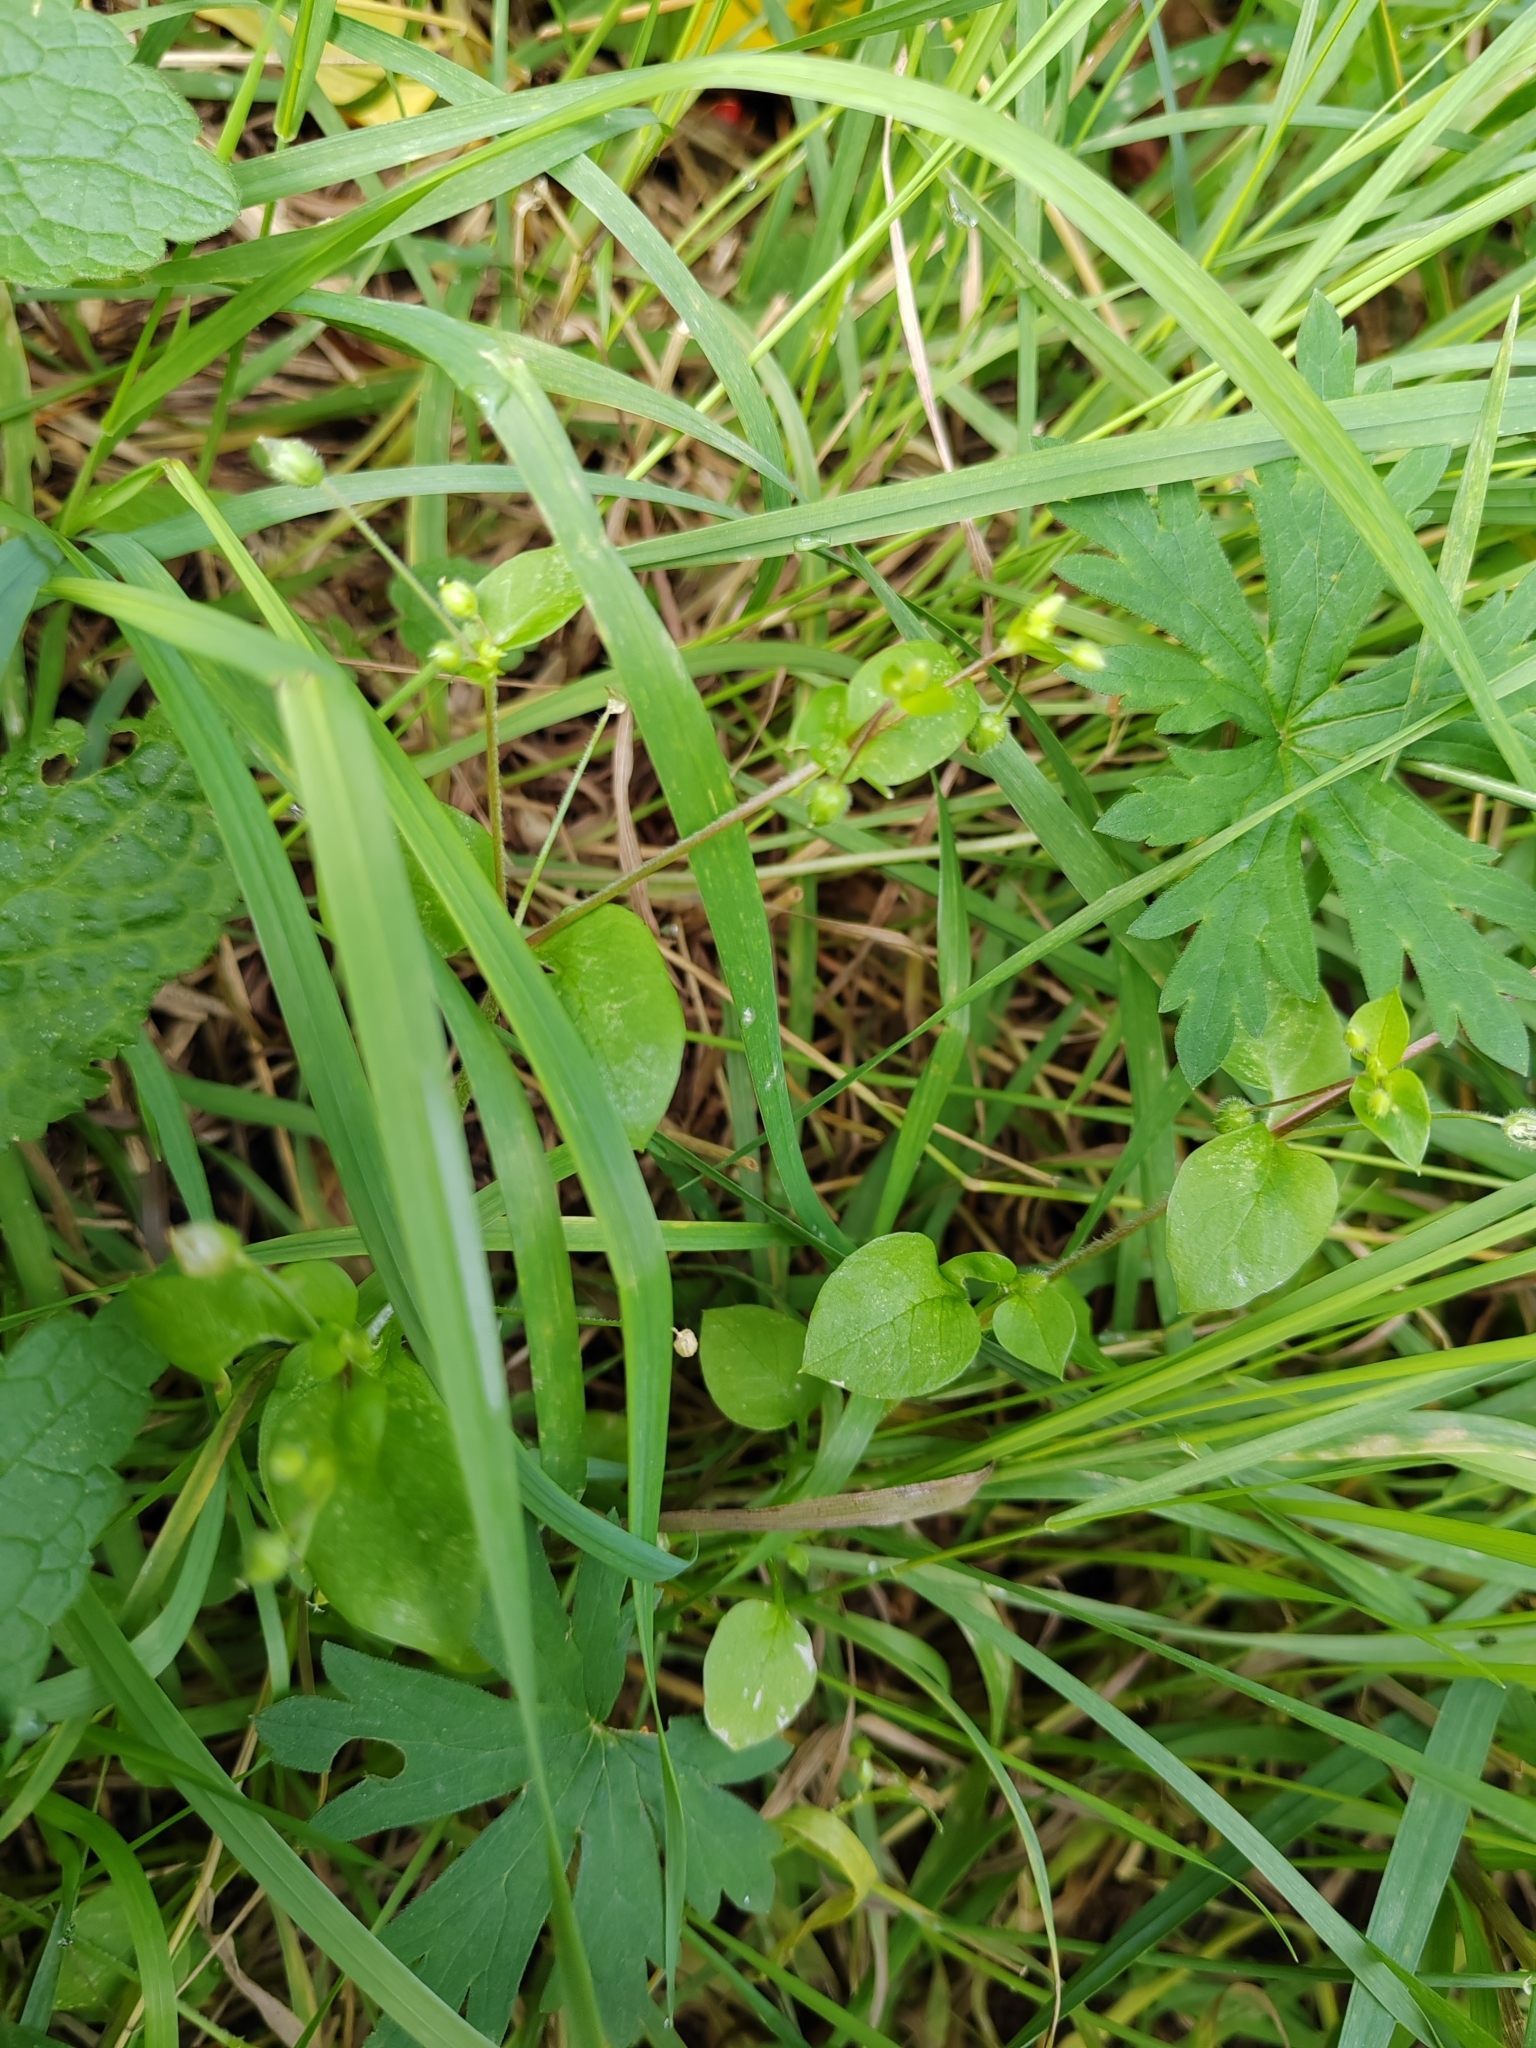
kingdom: Plantae
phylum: Tracheophyta
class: Magnoliopsida
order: Caryophyllales
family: Caryophyllaceae
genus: Stellaria
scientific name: Stellaria media
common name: Common chickweed
